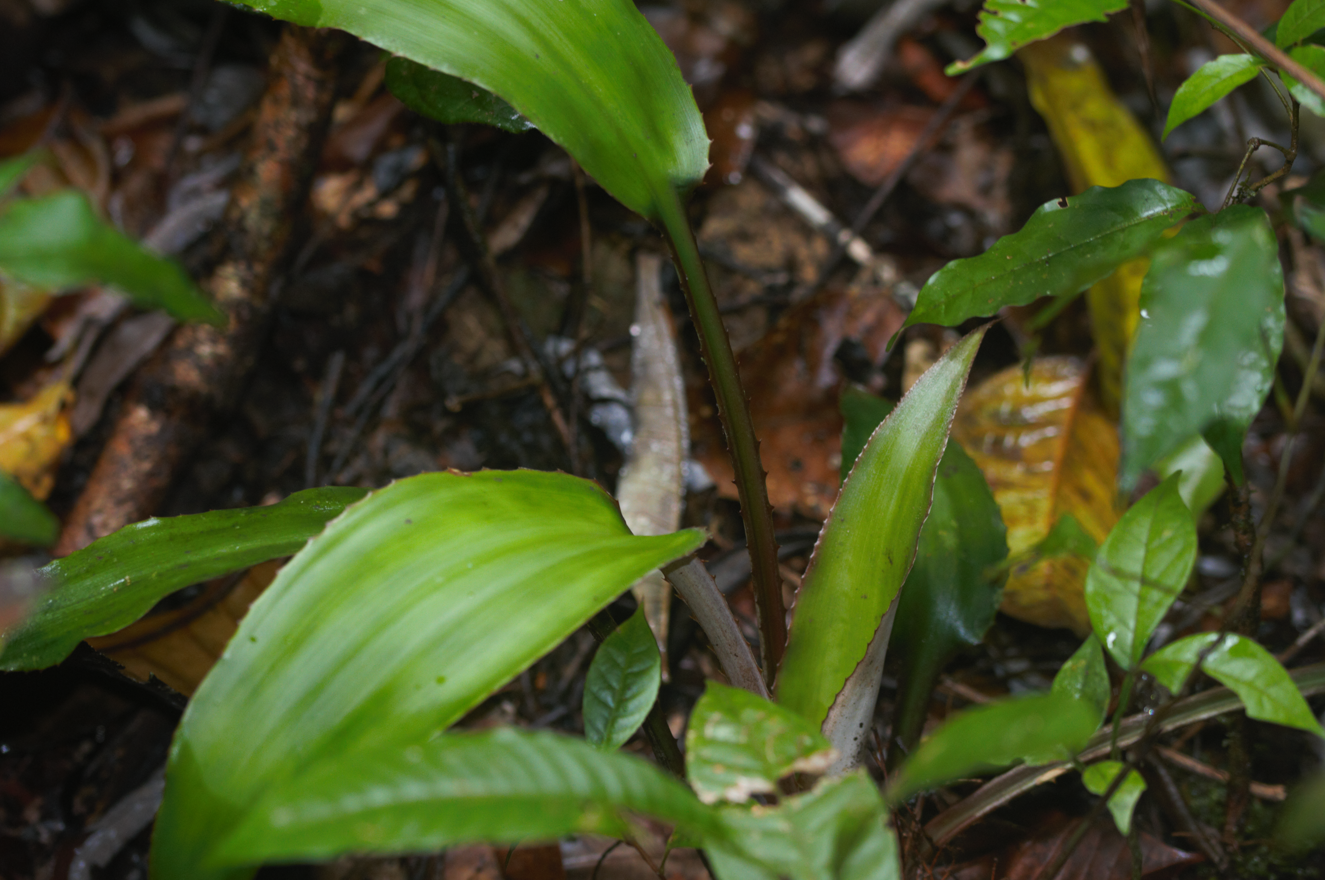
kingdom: Plantae
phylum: Tracheophyta
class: Liliopsida
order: Poales
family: Bromeliaceae
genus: Disteganthus
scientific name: Disteganthus basilateralis
